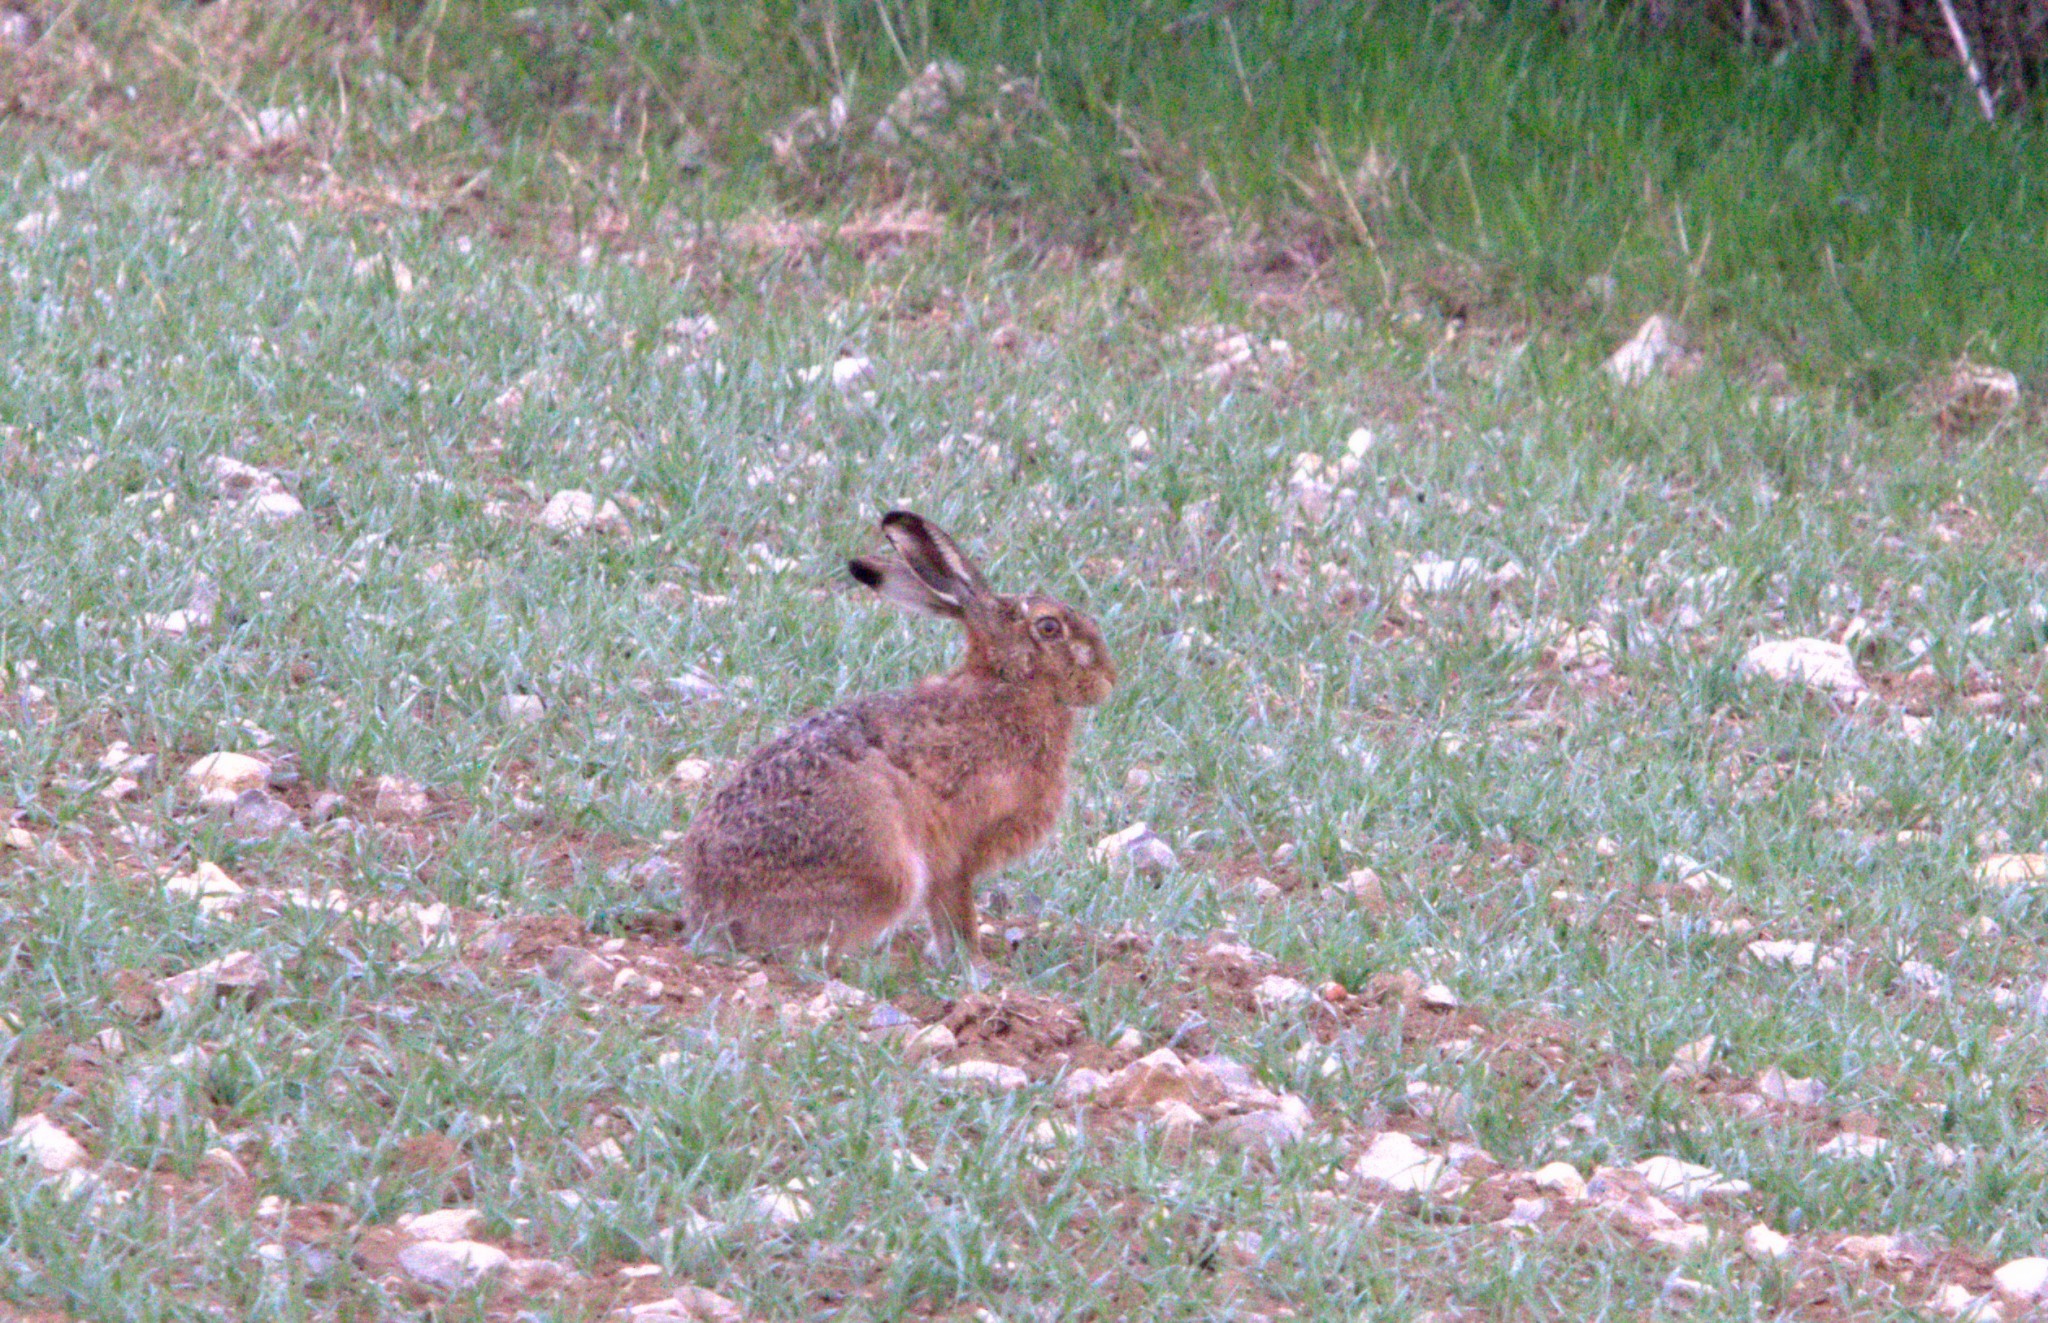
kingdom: Animalia
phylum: Chordata
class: Mammalia
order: Lagomorpha
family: Leporidae
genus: Lepus
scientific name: Lepus europaeus
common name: European hare
